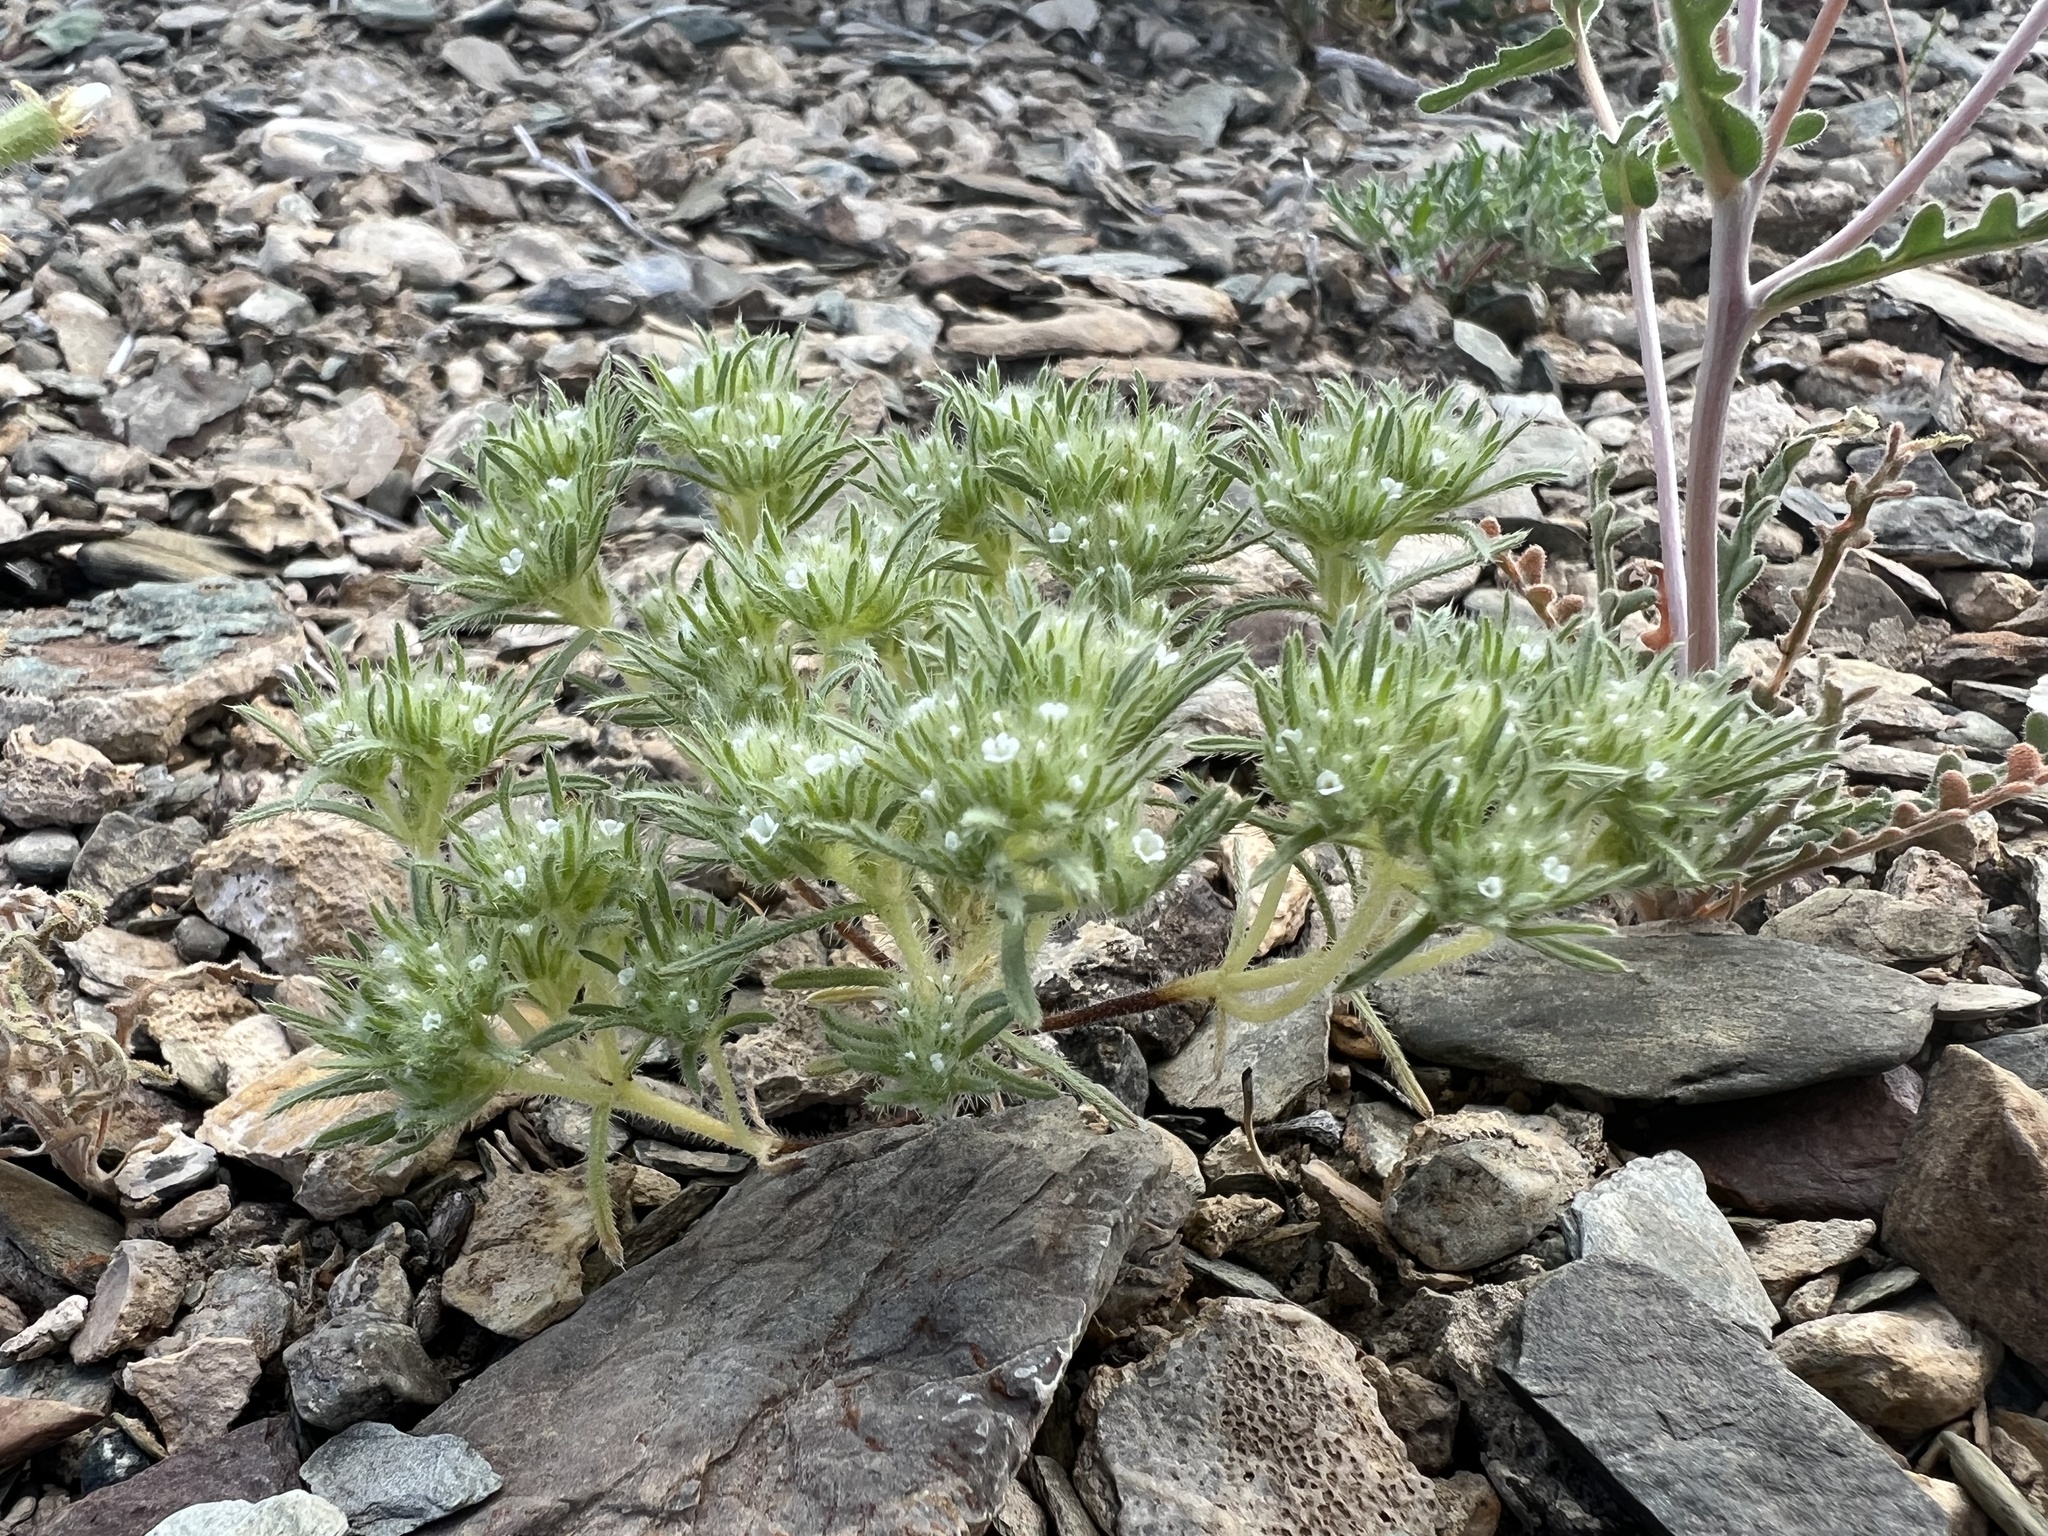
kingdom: Plantae
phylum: Tracheophyta
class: Magnoliopsida
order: Boraginales
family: Boraginaceae
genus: Greeneocharis
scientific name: Greeneocharis circumscissa
